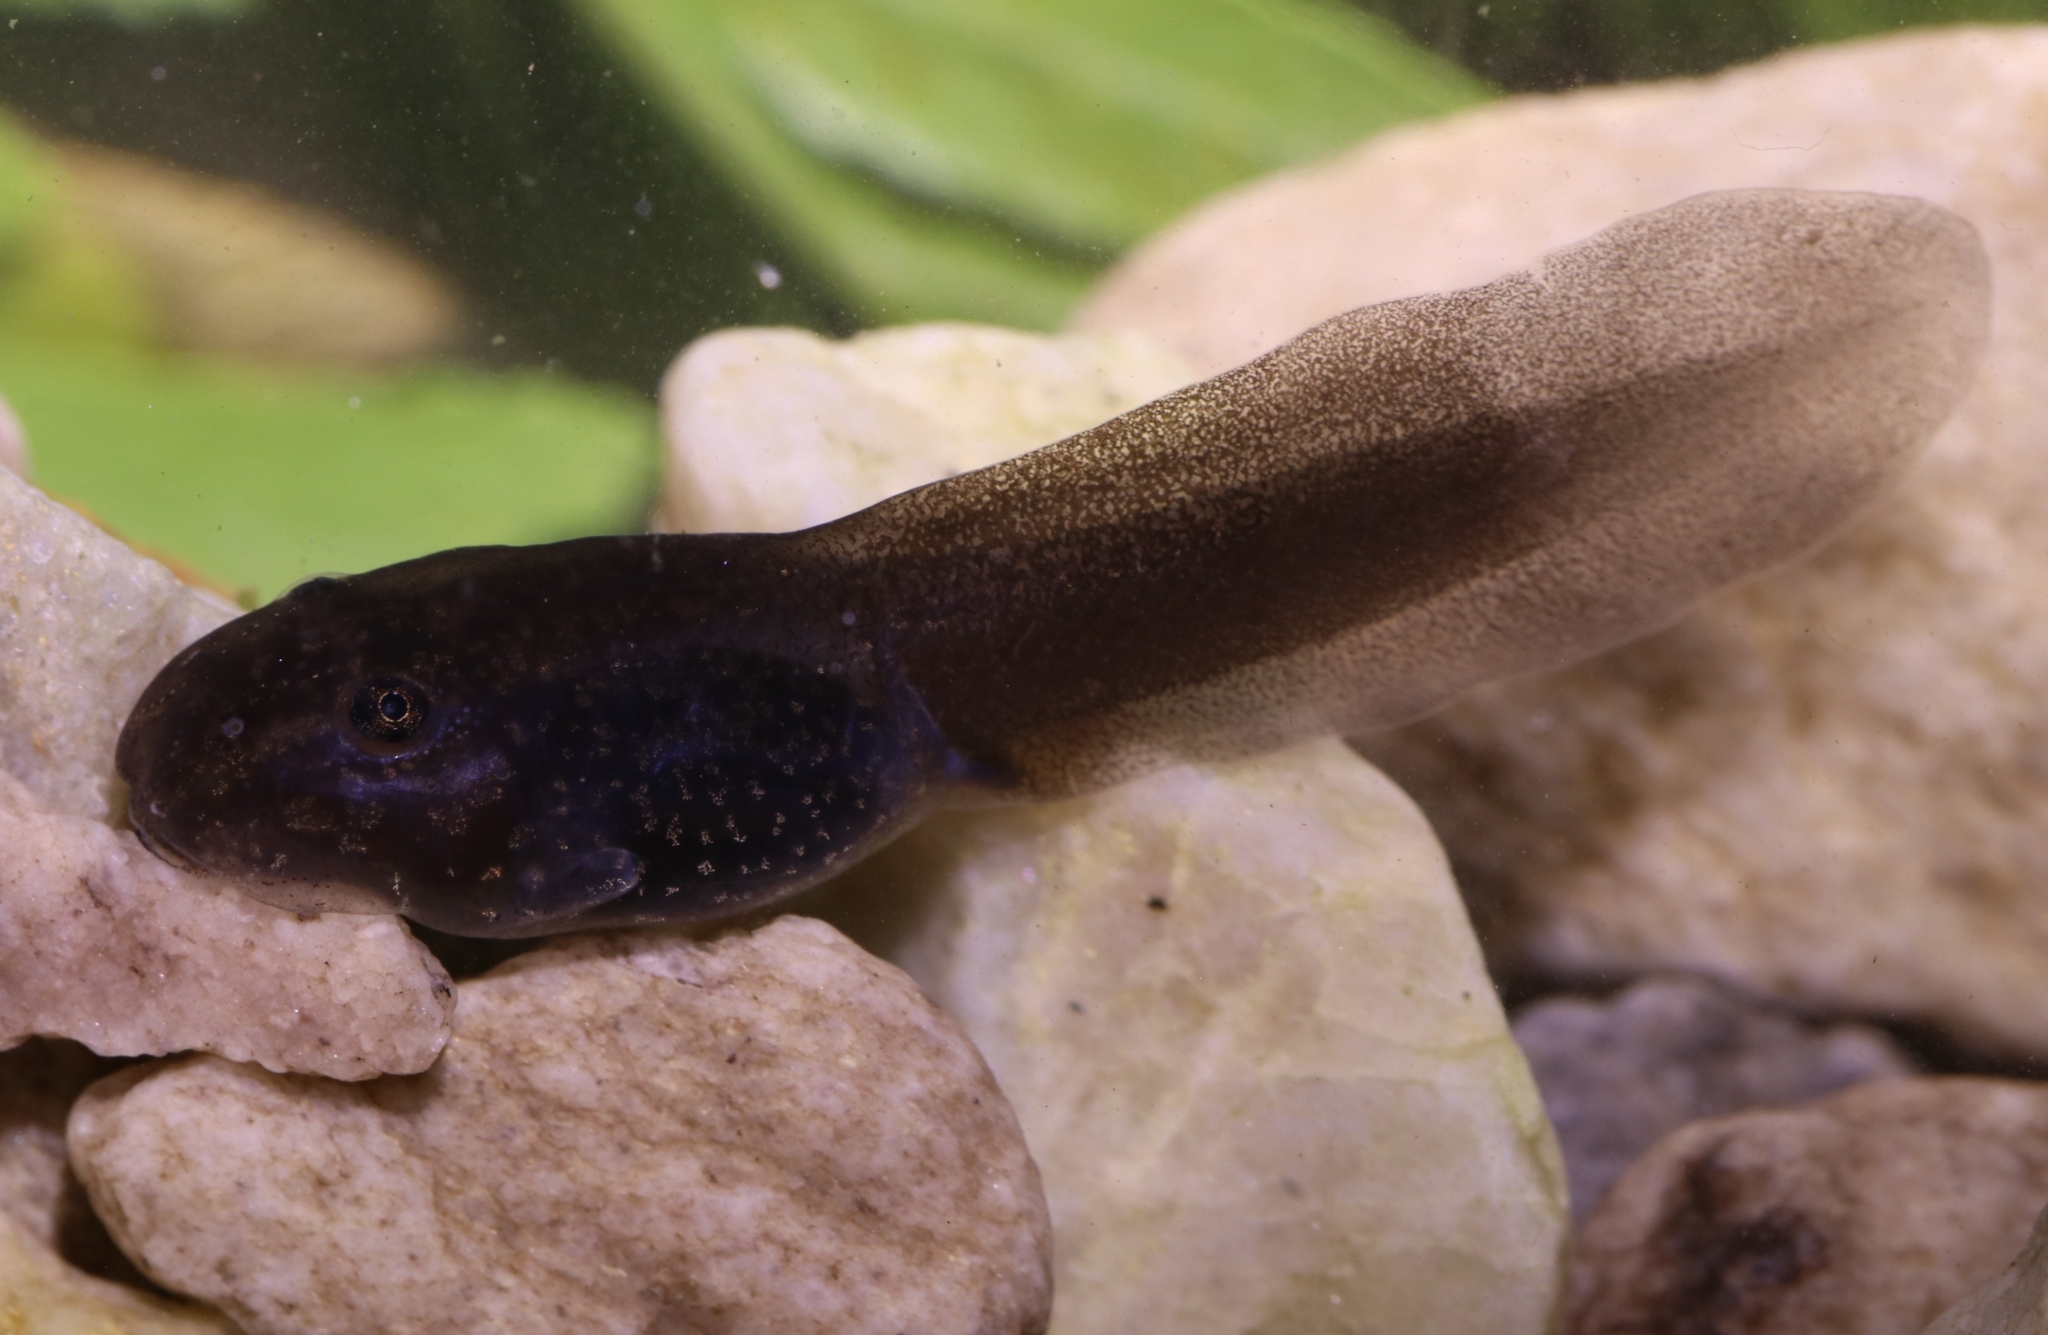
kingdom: Animalia
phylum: Chordata
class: Amphibia
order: Anura
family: Pyxicephalidae
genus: Amietia
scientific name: Amietia vandijki
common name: Van dijk's river frog
